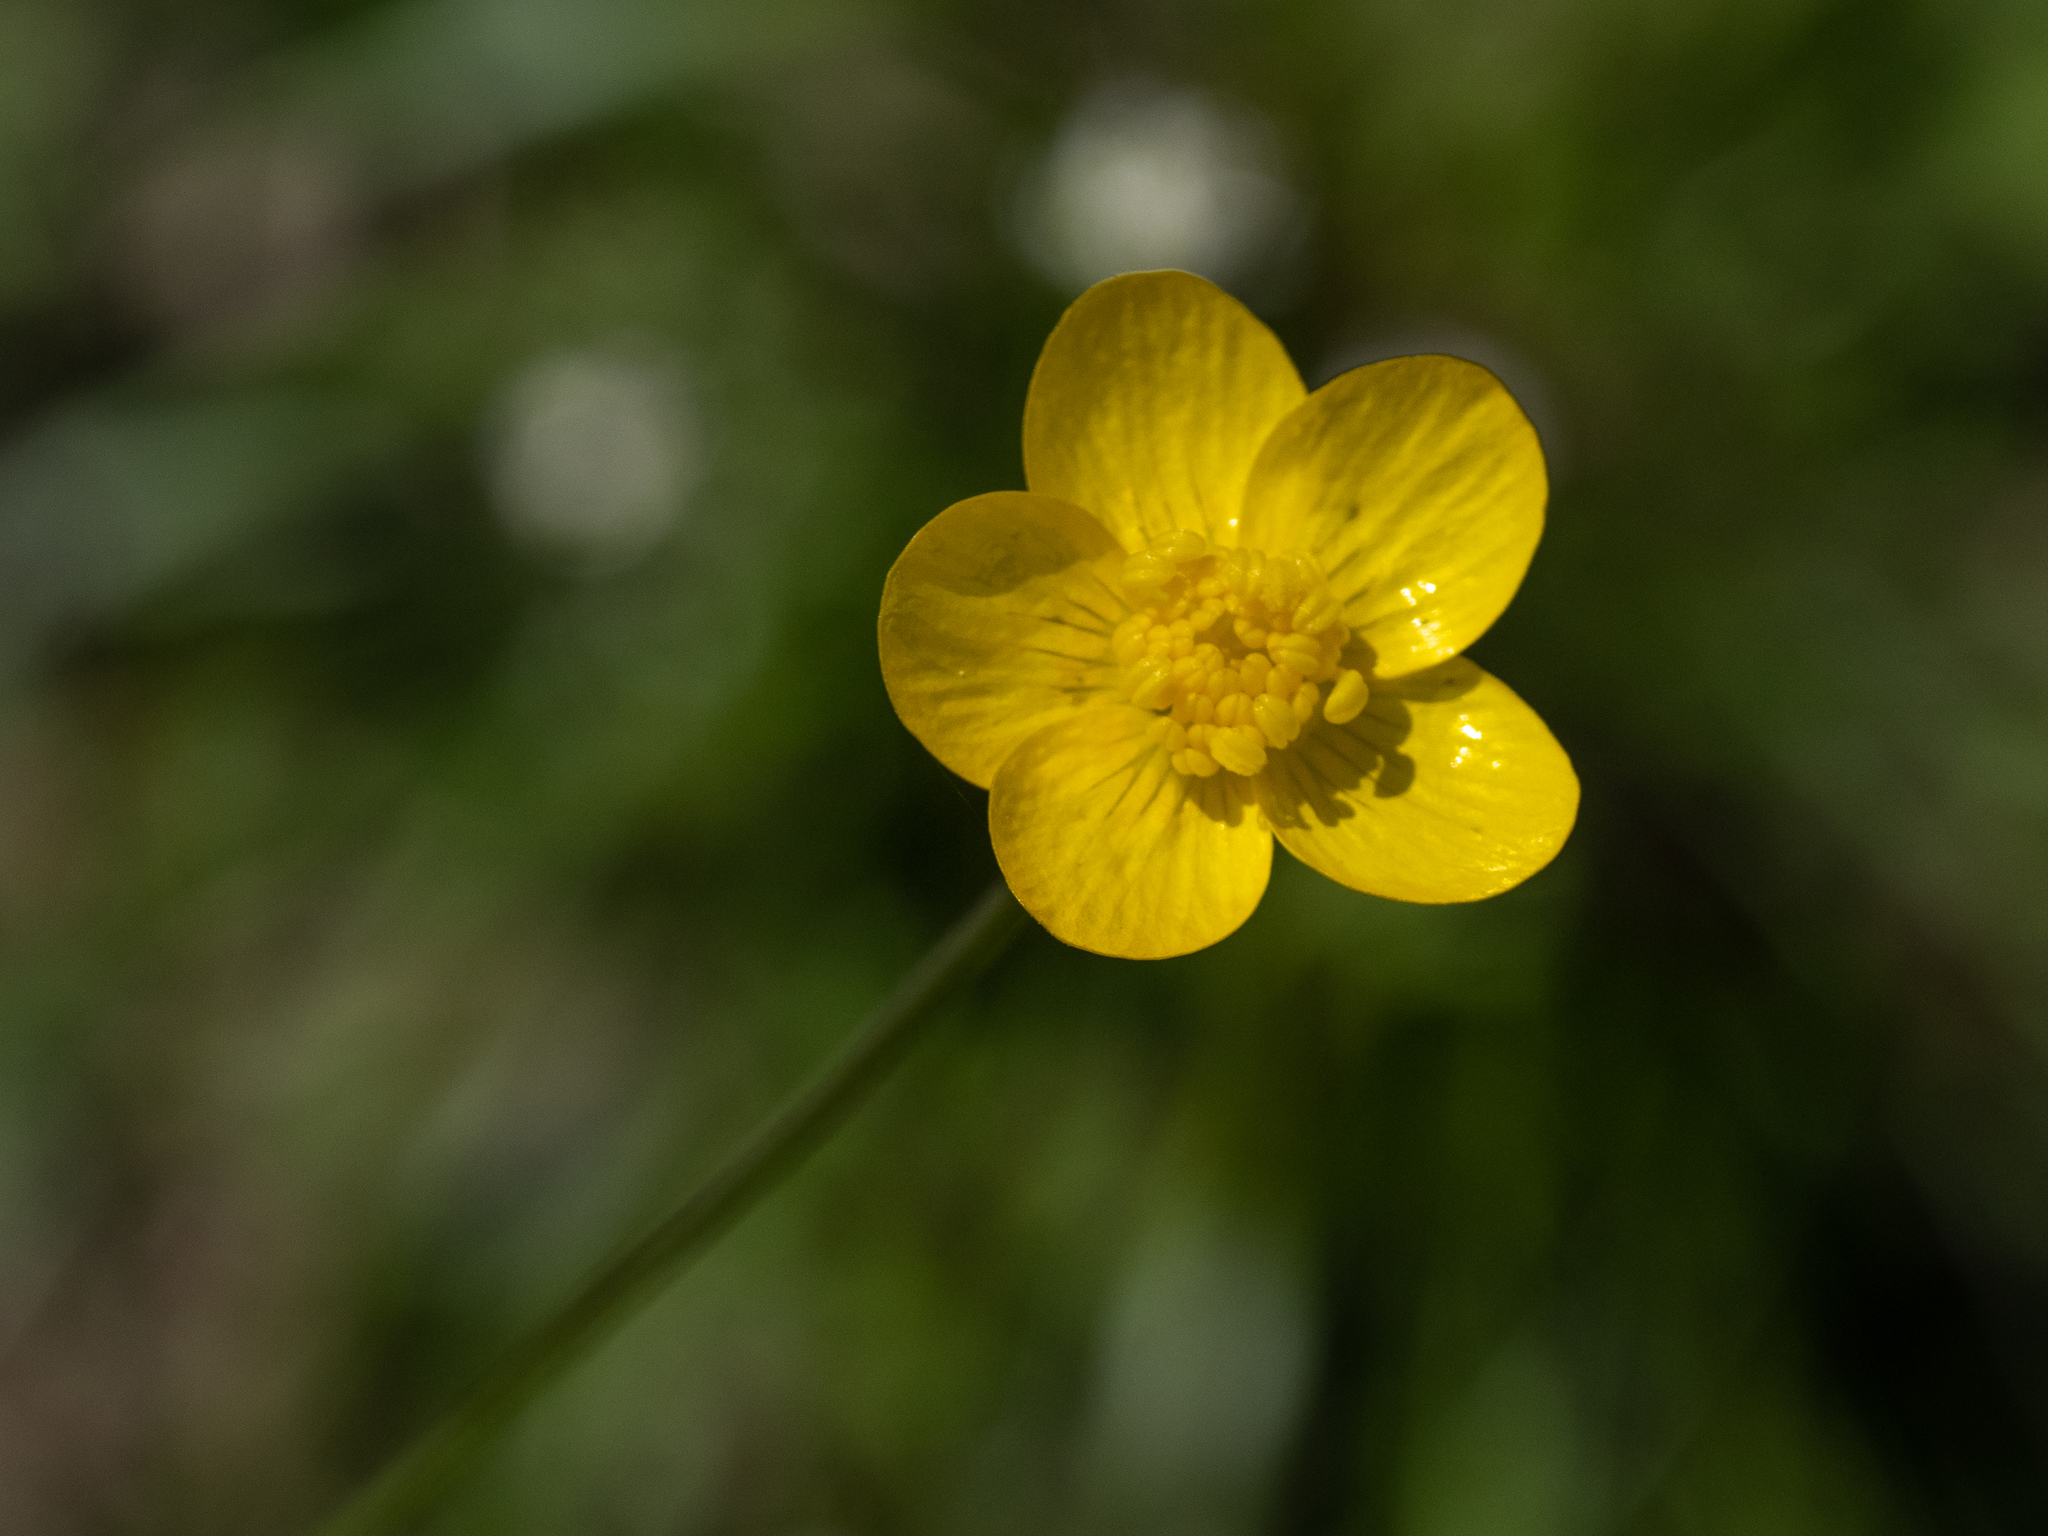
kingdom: Plantae
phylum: Tracheophyta
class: Magnoliopsida
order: Ranunculales
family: Ranunculaceae
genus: Ranunculus
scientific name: Ranunculus occidentalis
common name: Western buttercup
